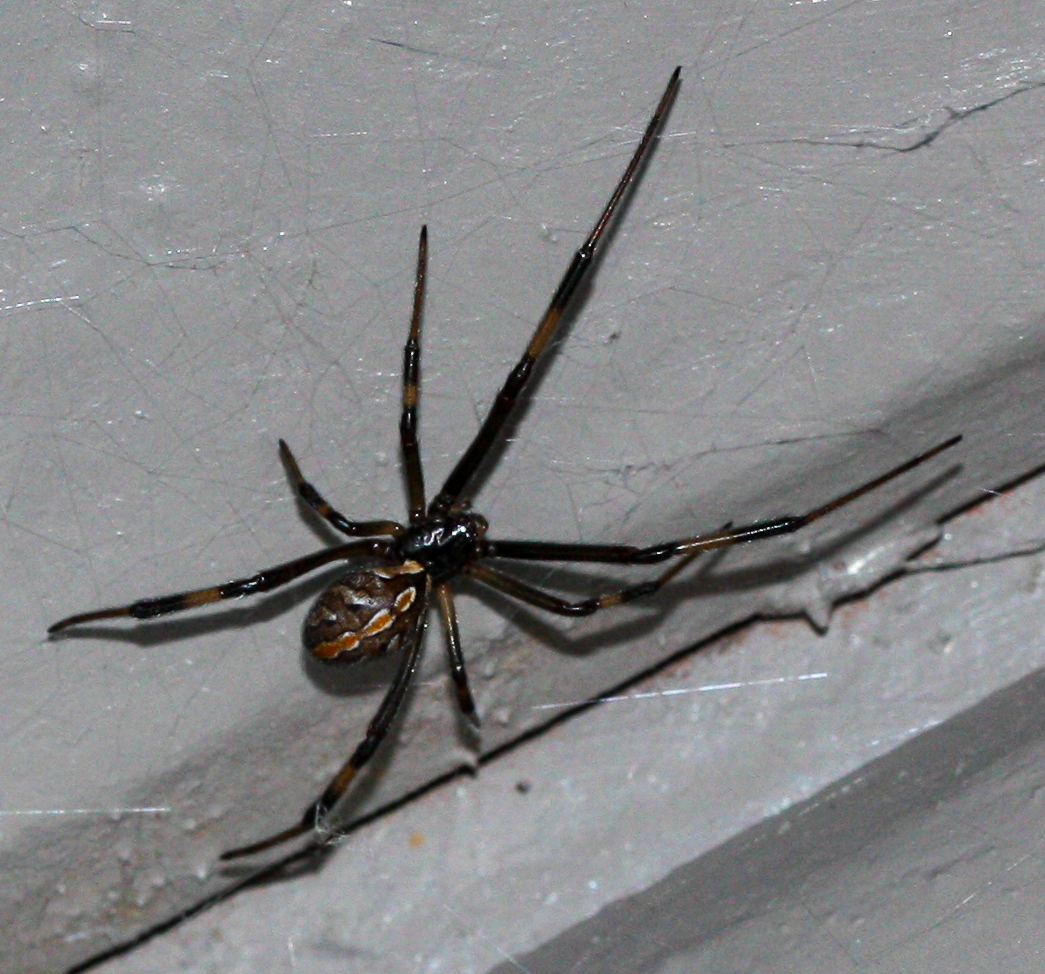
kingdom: Animalia
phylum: Arthropoda
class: Arachnida
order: Araneae
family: Theridiidae
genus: Latrodectus
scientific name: Latrodectus hesperus
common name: Western black widow
